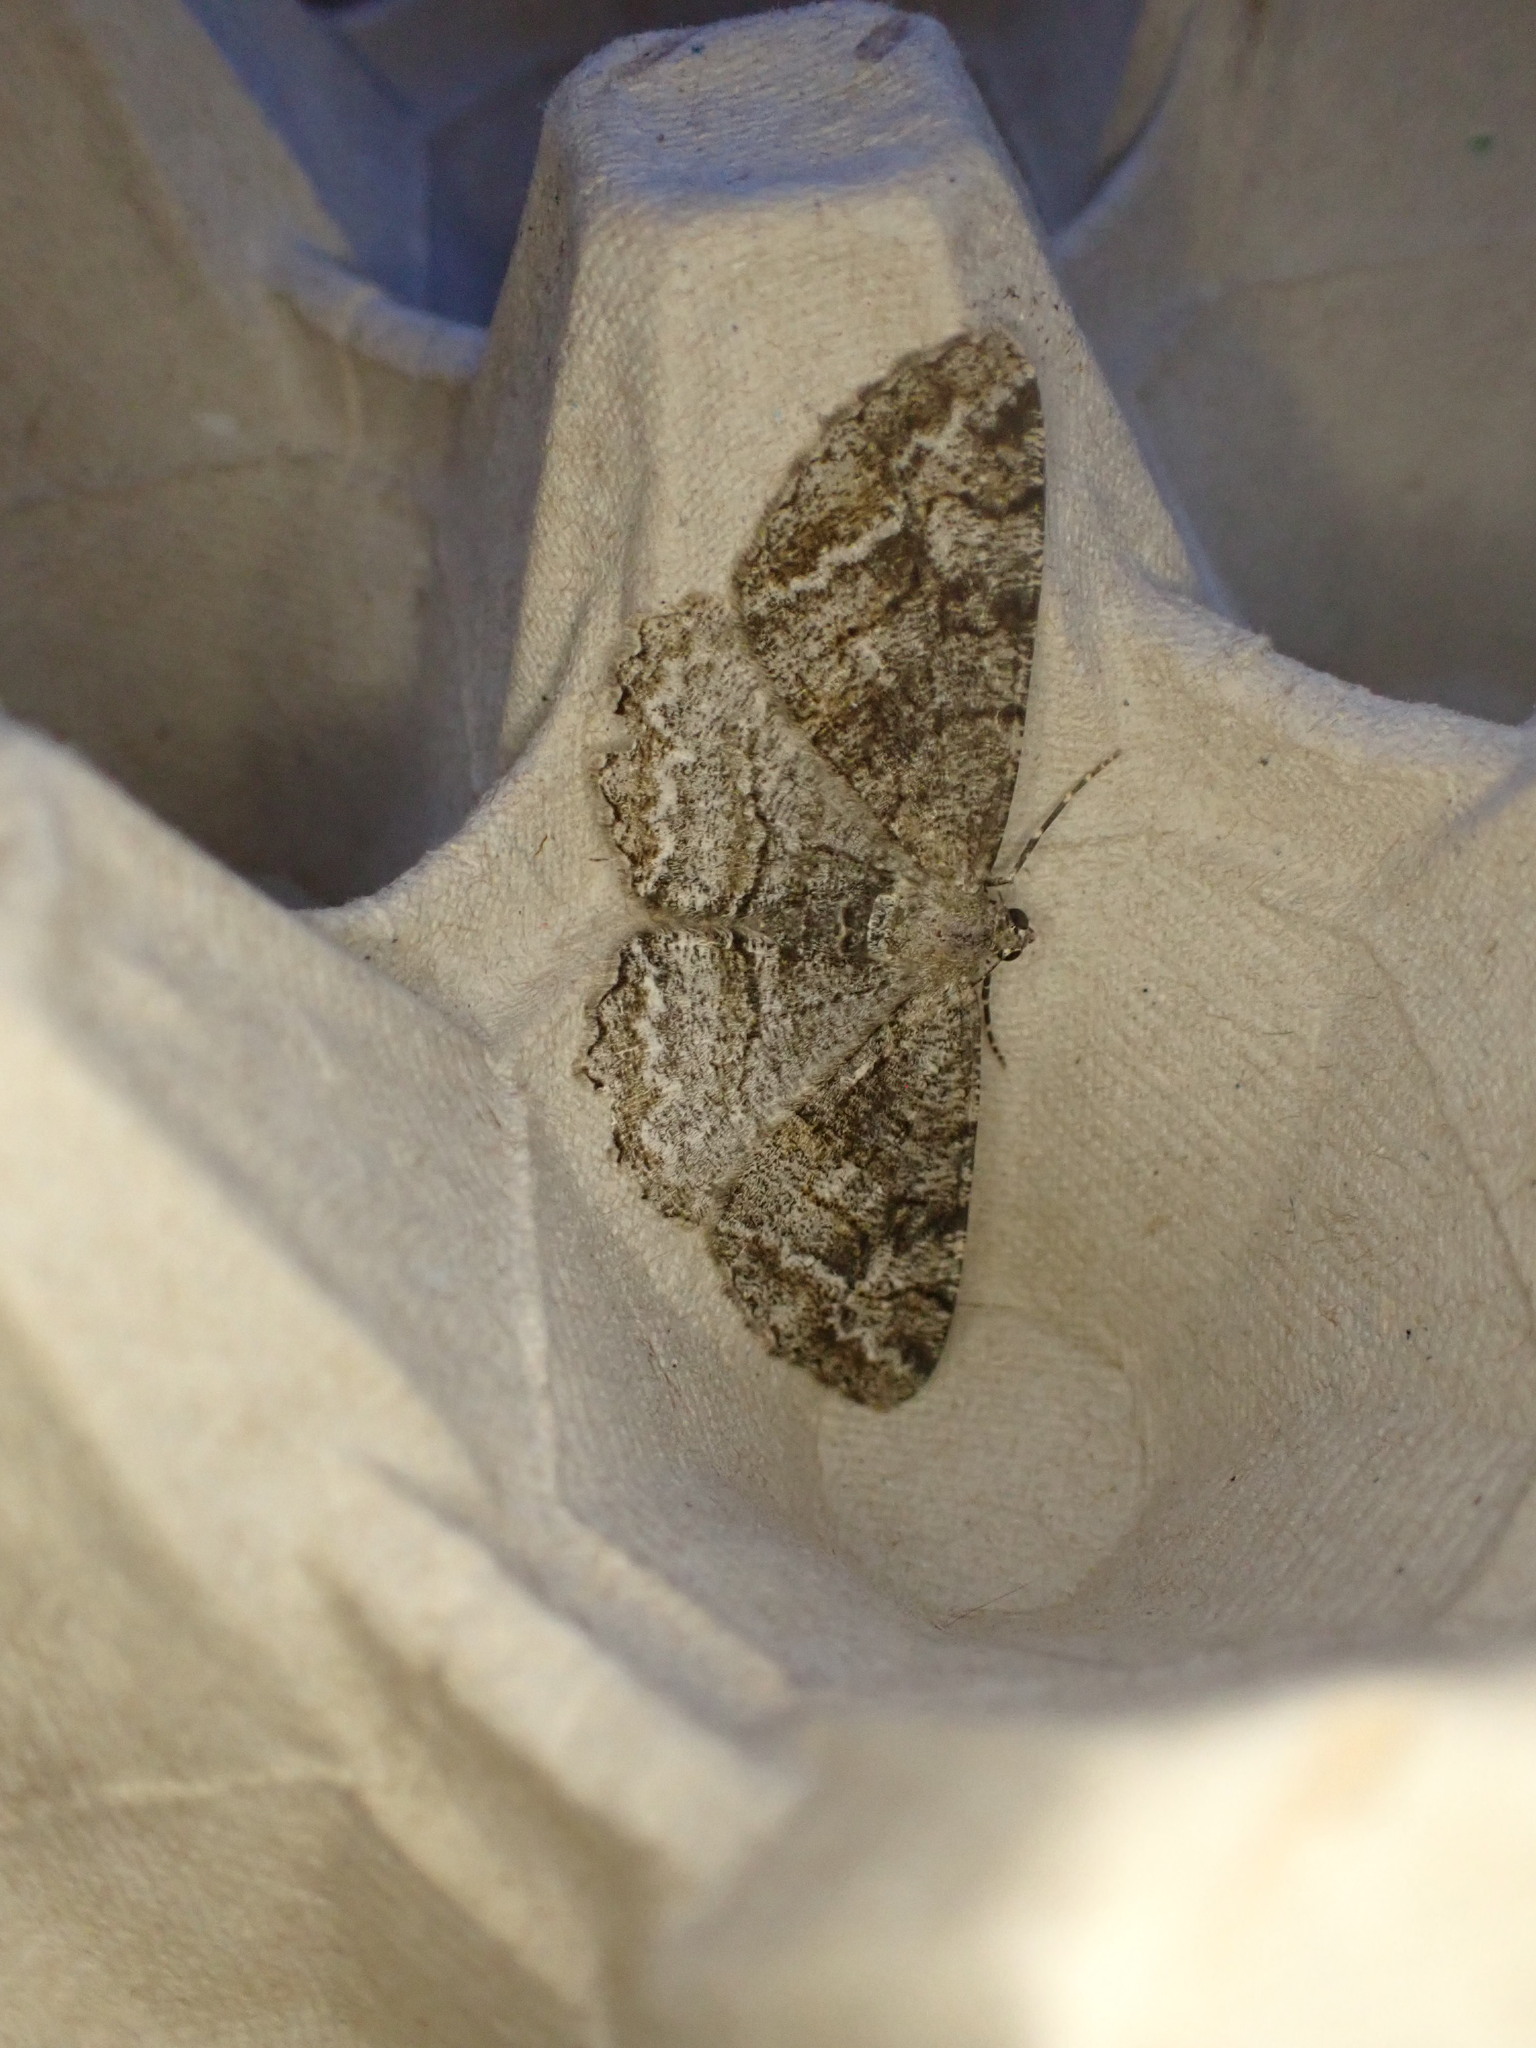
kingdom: Animalia
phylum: Arthropoda
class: Insecta
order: Lepidoptera
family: Geometridae
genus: Alcis
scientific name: Alcis repandata
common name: Mottled beauty
